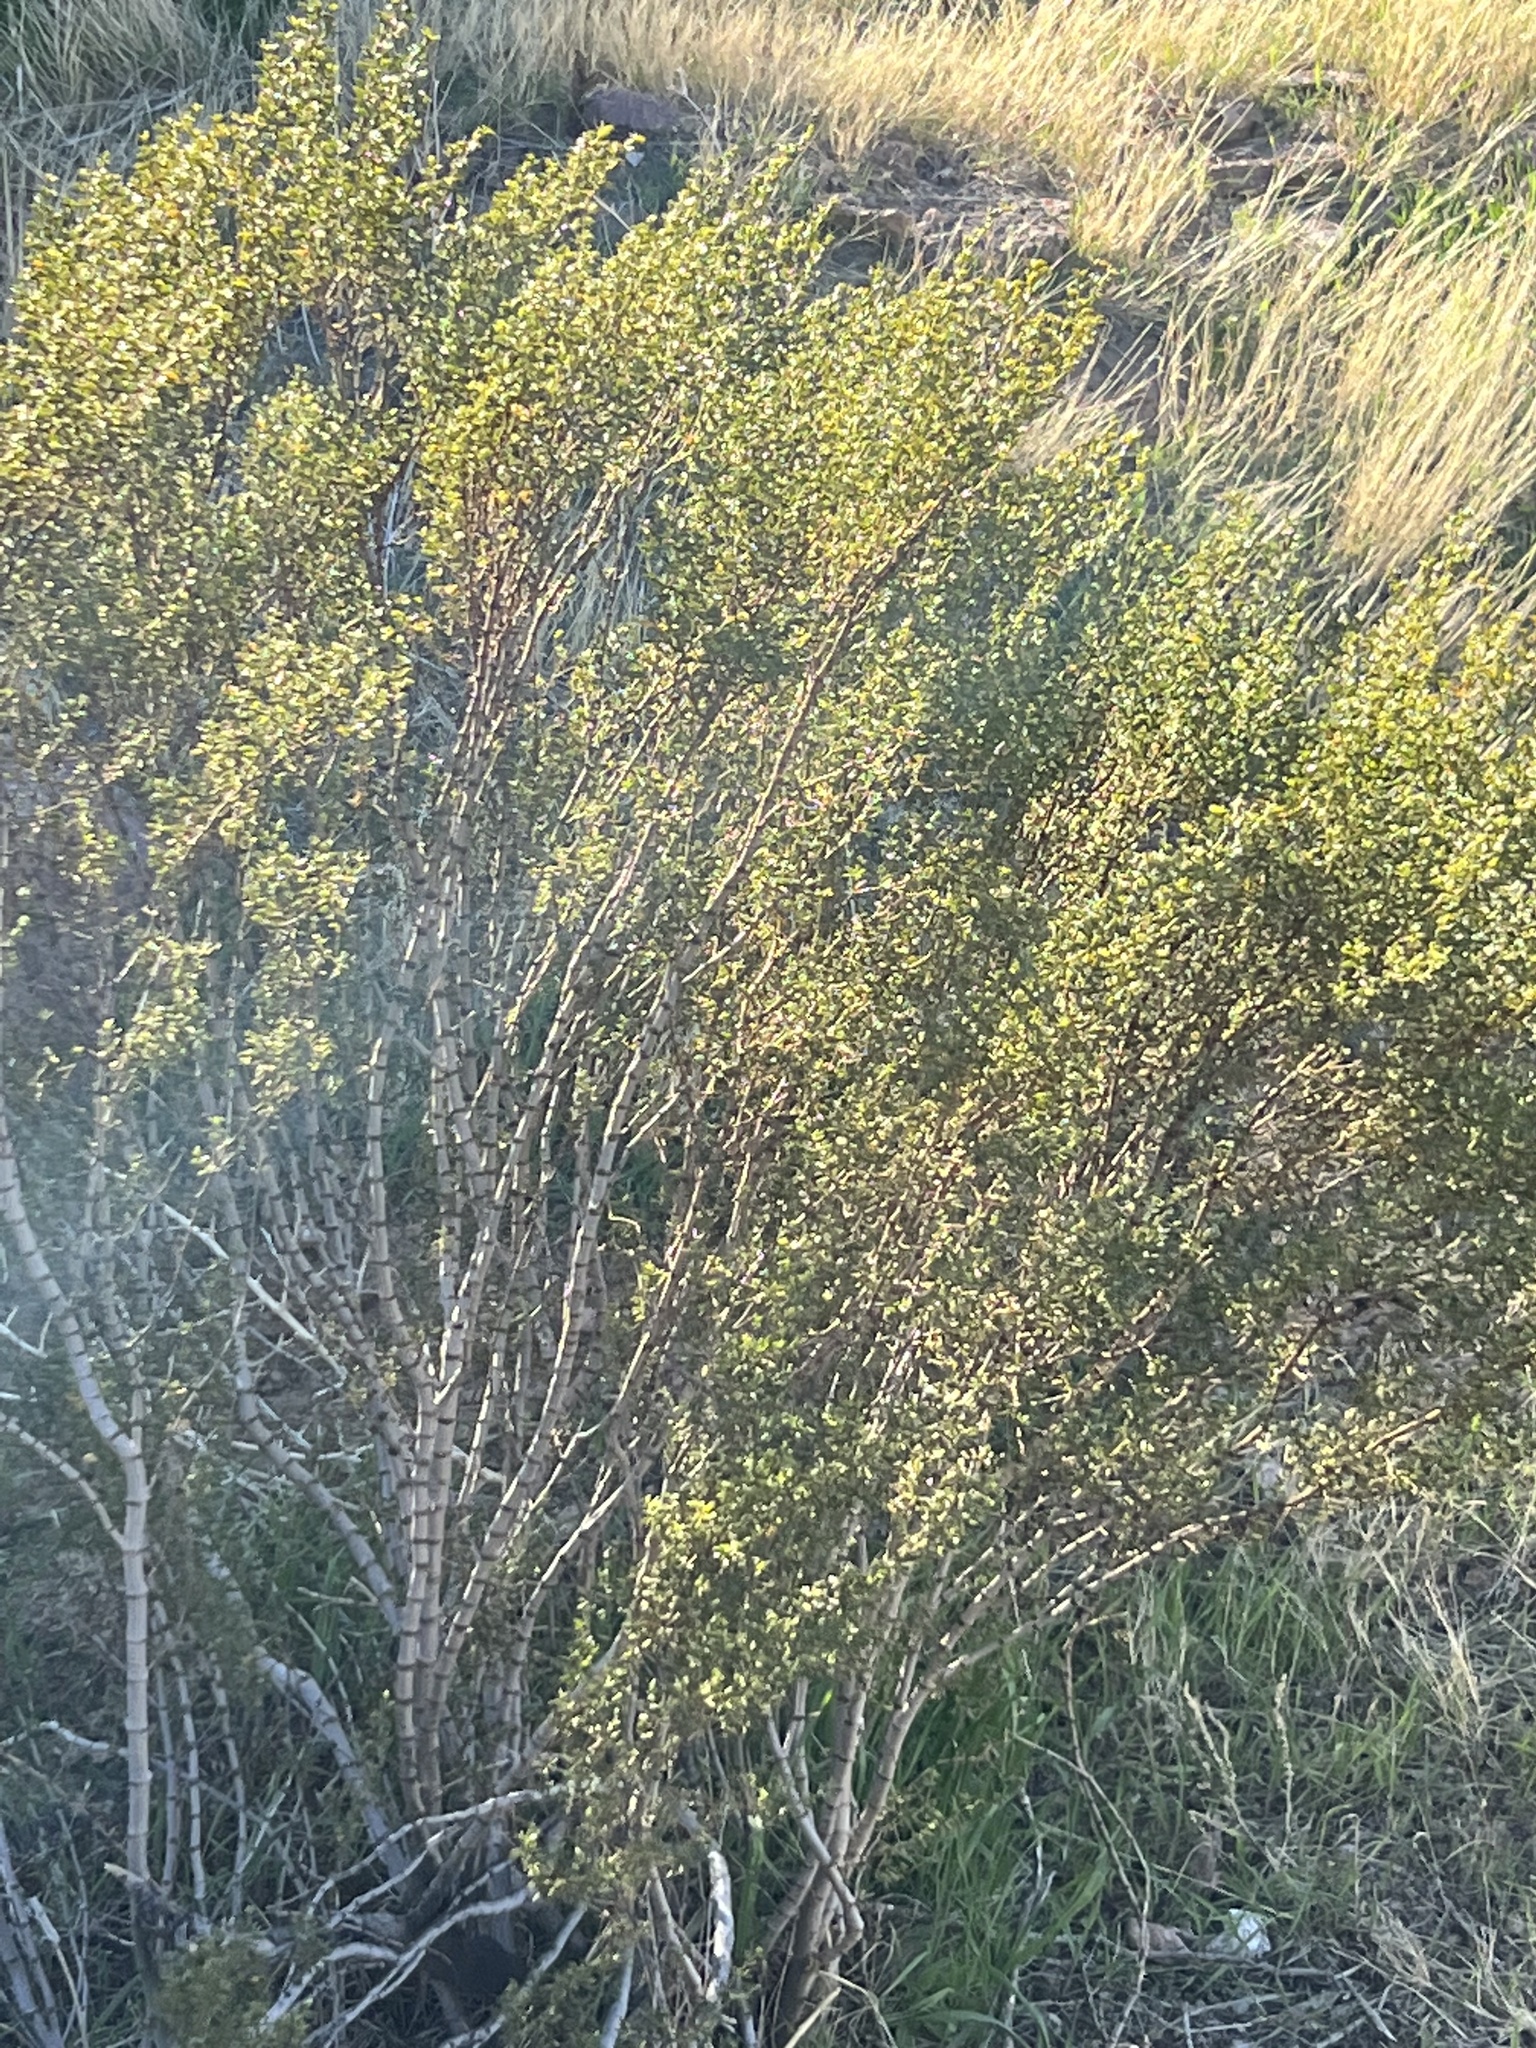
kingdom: Plantae
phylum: Tracheophyta
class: Magnoliopsida
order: Zygophyllales
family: Zygophyllaceae
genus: Larrea
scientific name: Larrea tridentata
